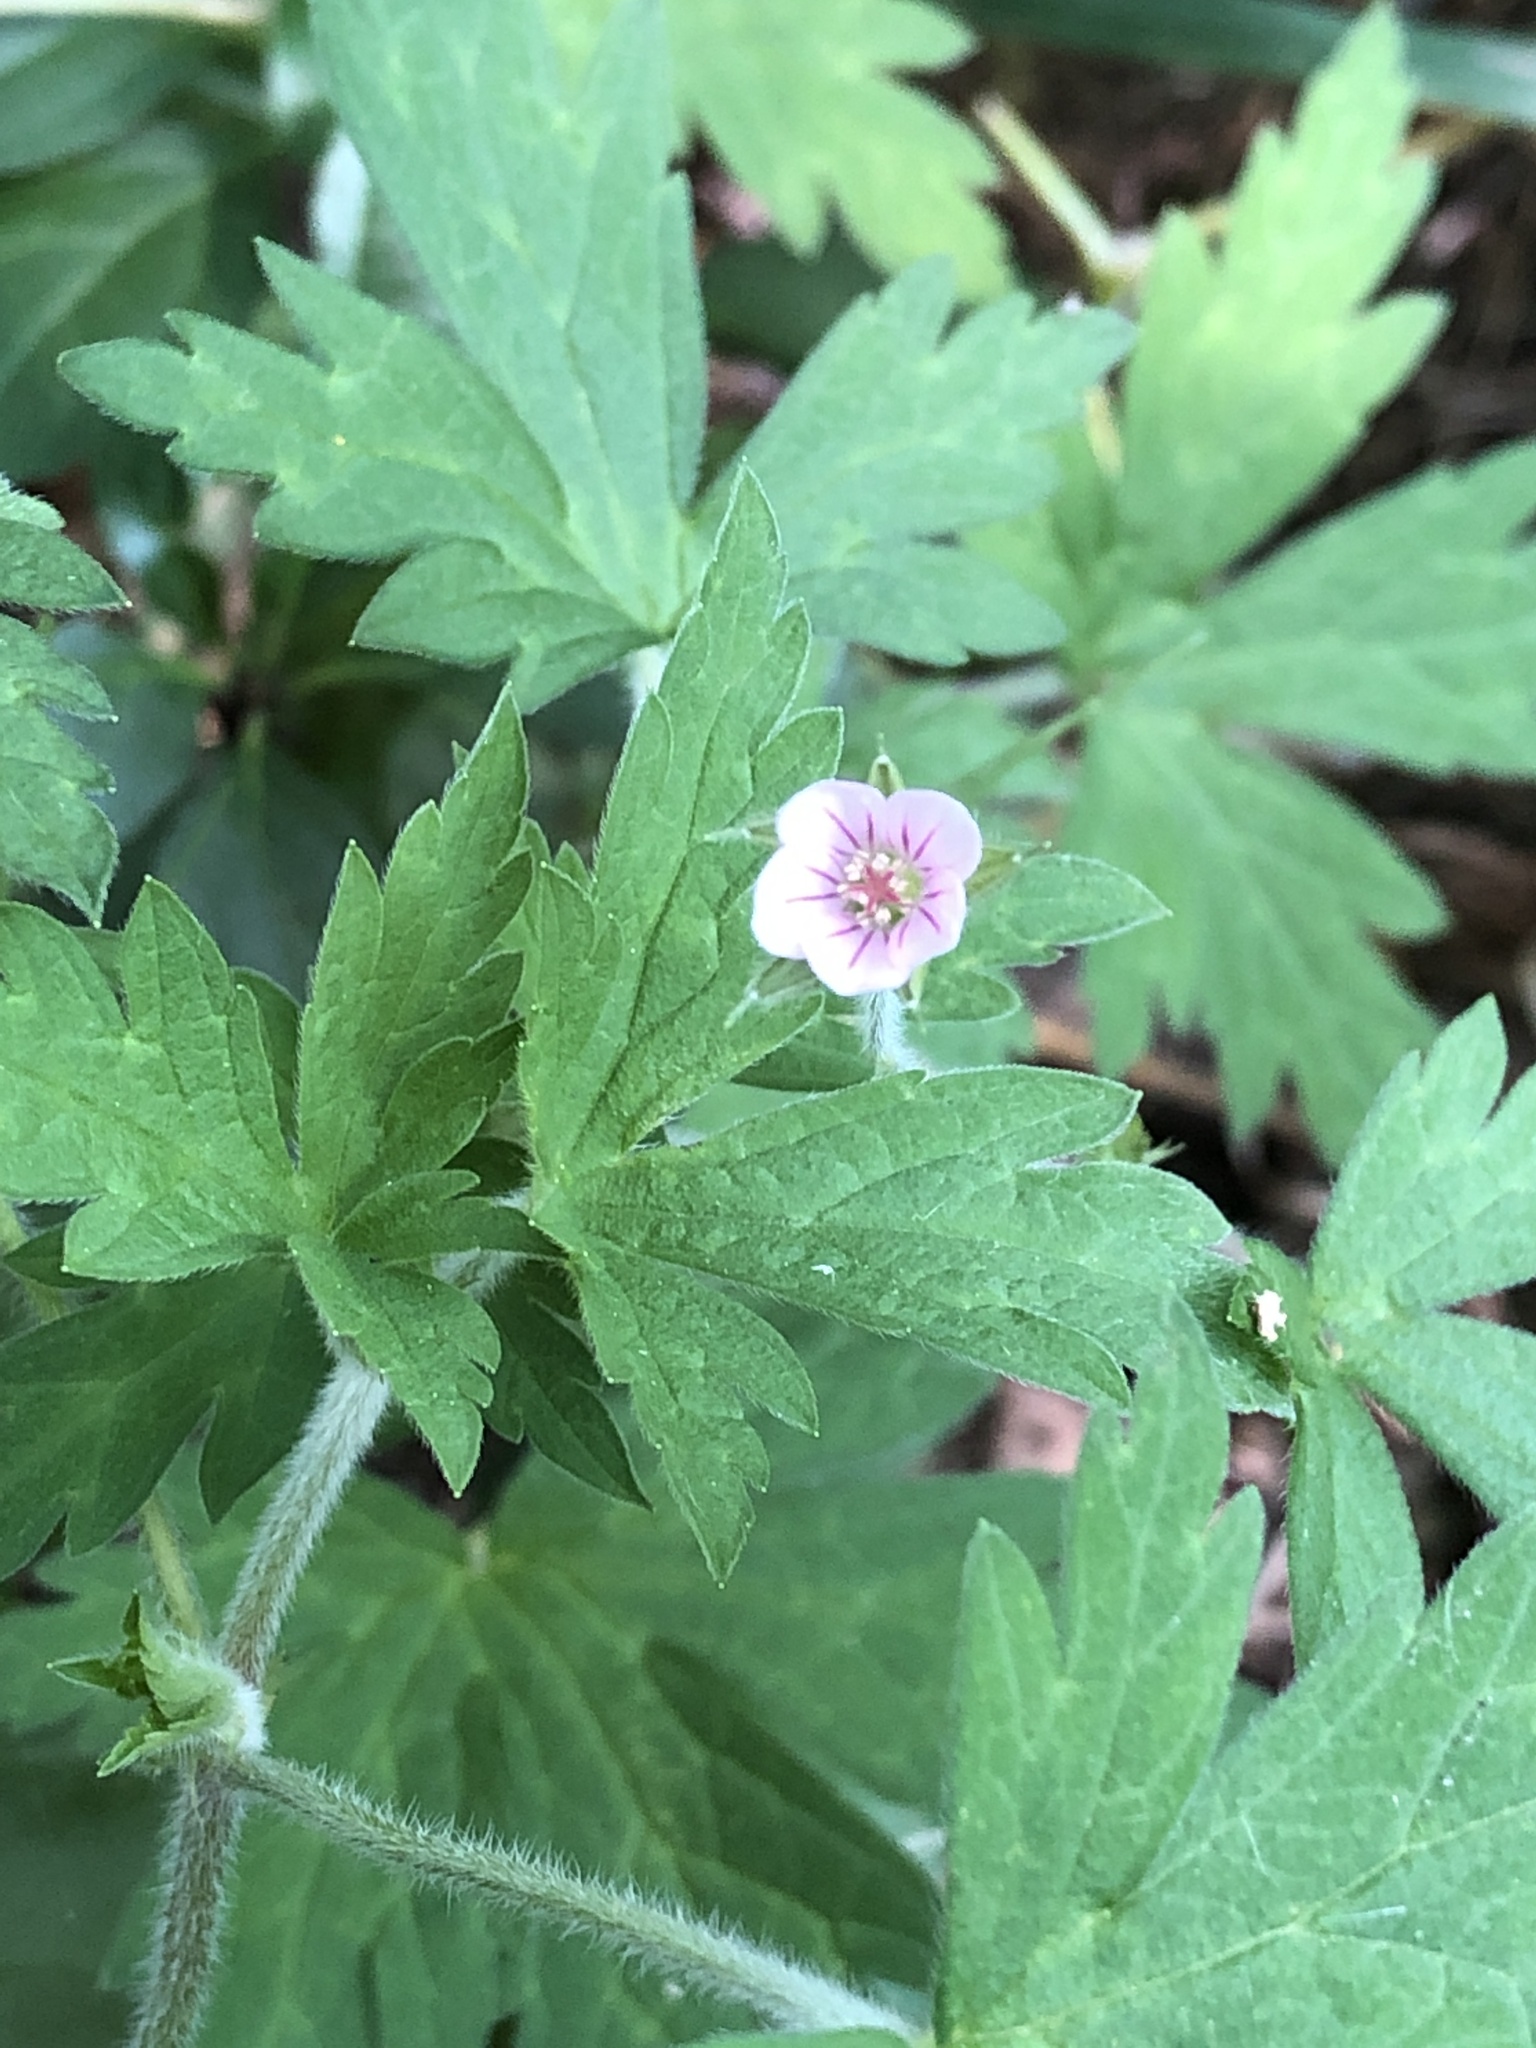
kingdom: Plantae
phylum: Tracheophyta
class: Magnoliopsida
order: Geraniales
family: Geraniaceae
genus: Geranium
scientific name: Geranium sibiricum
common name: Siberian crane's-bill
